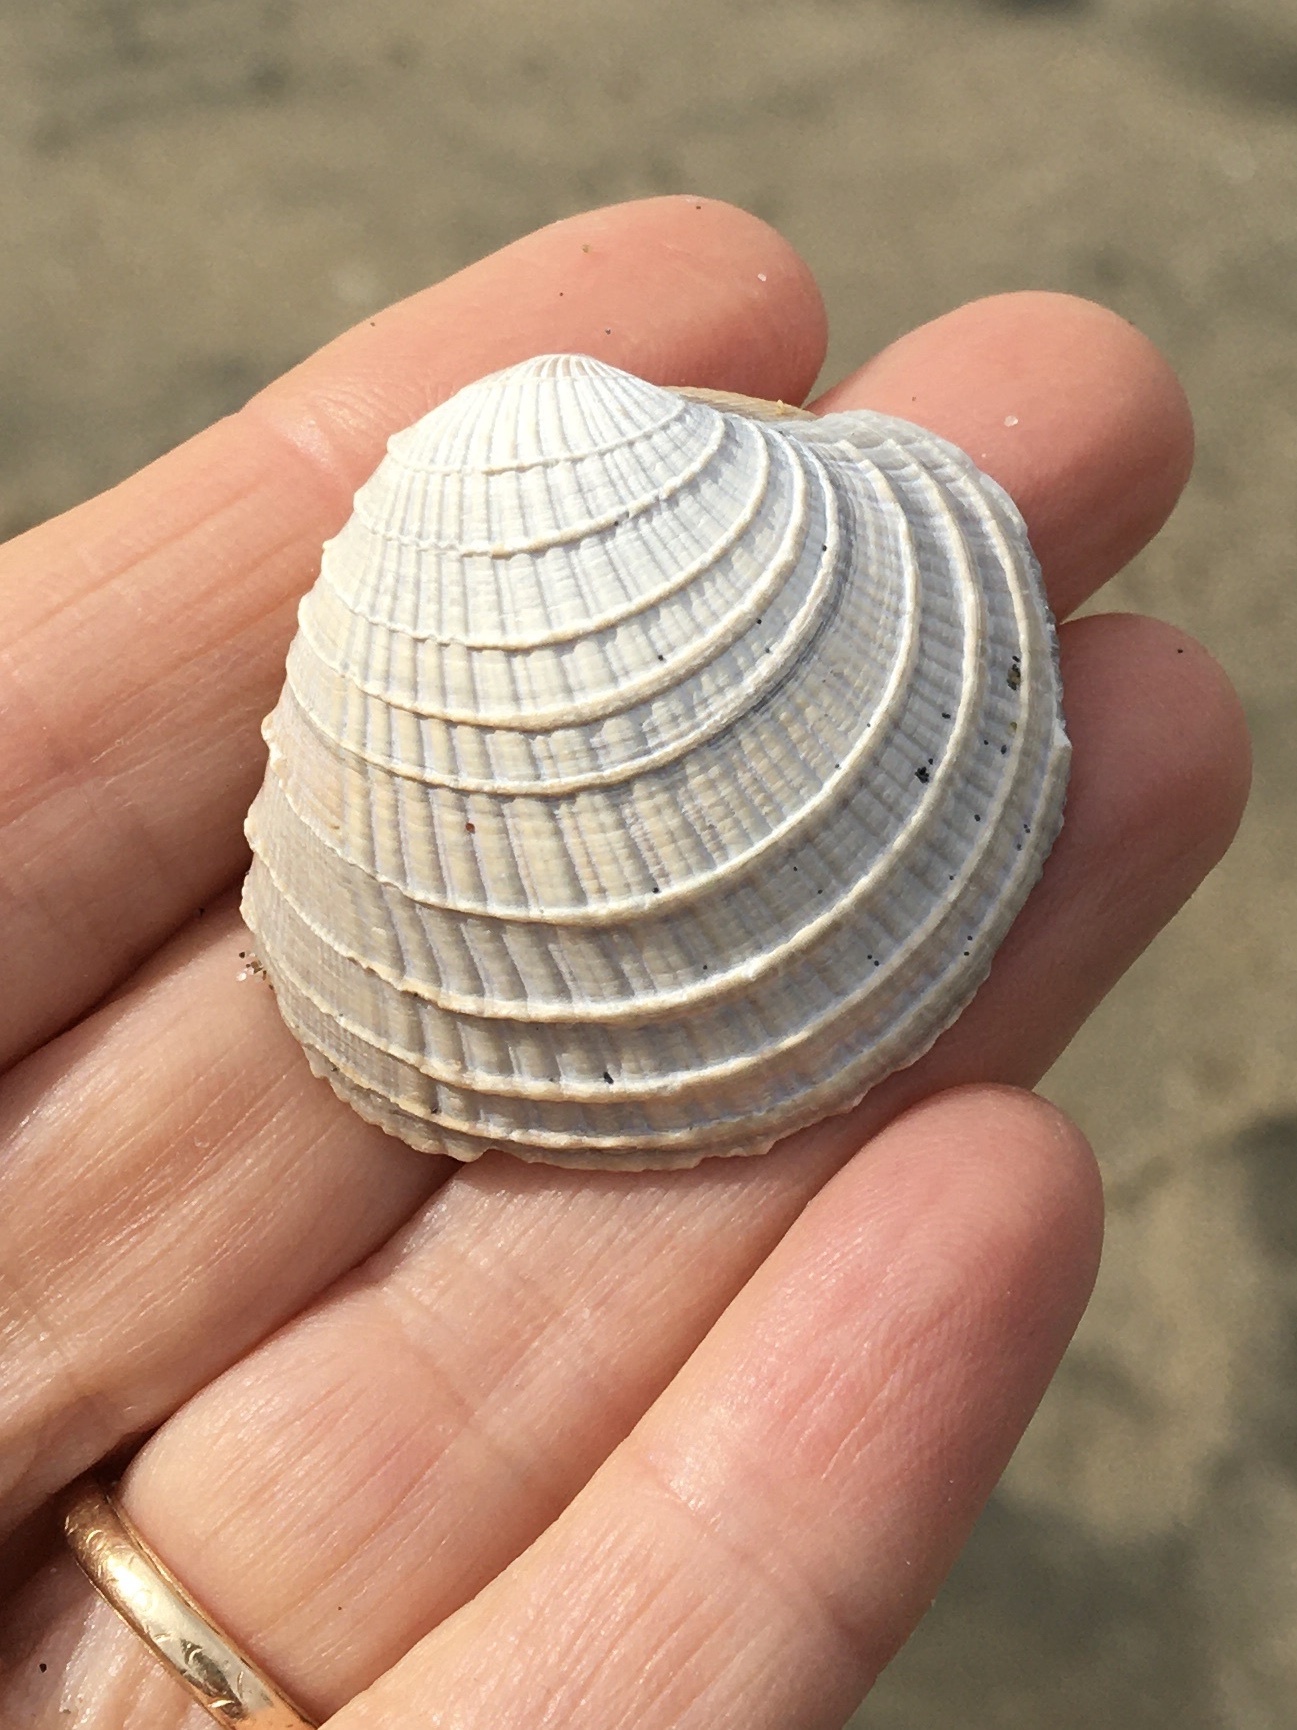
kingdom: Animalia
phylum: Mollusca
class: Bivalvia
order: Venerida
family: Veneridae
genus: Chione
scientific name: Chione californiensis
